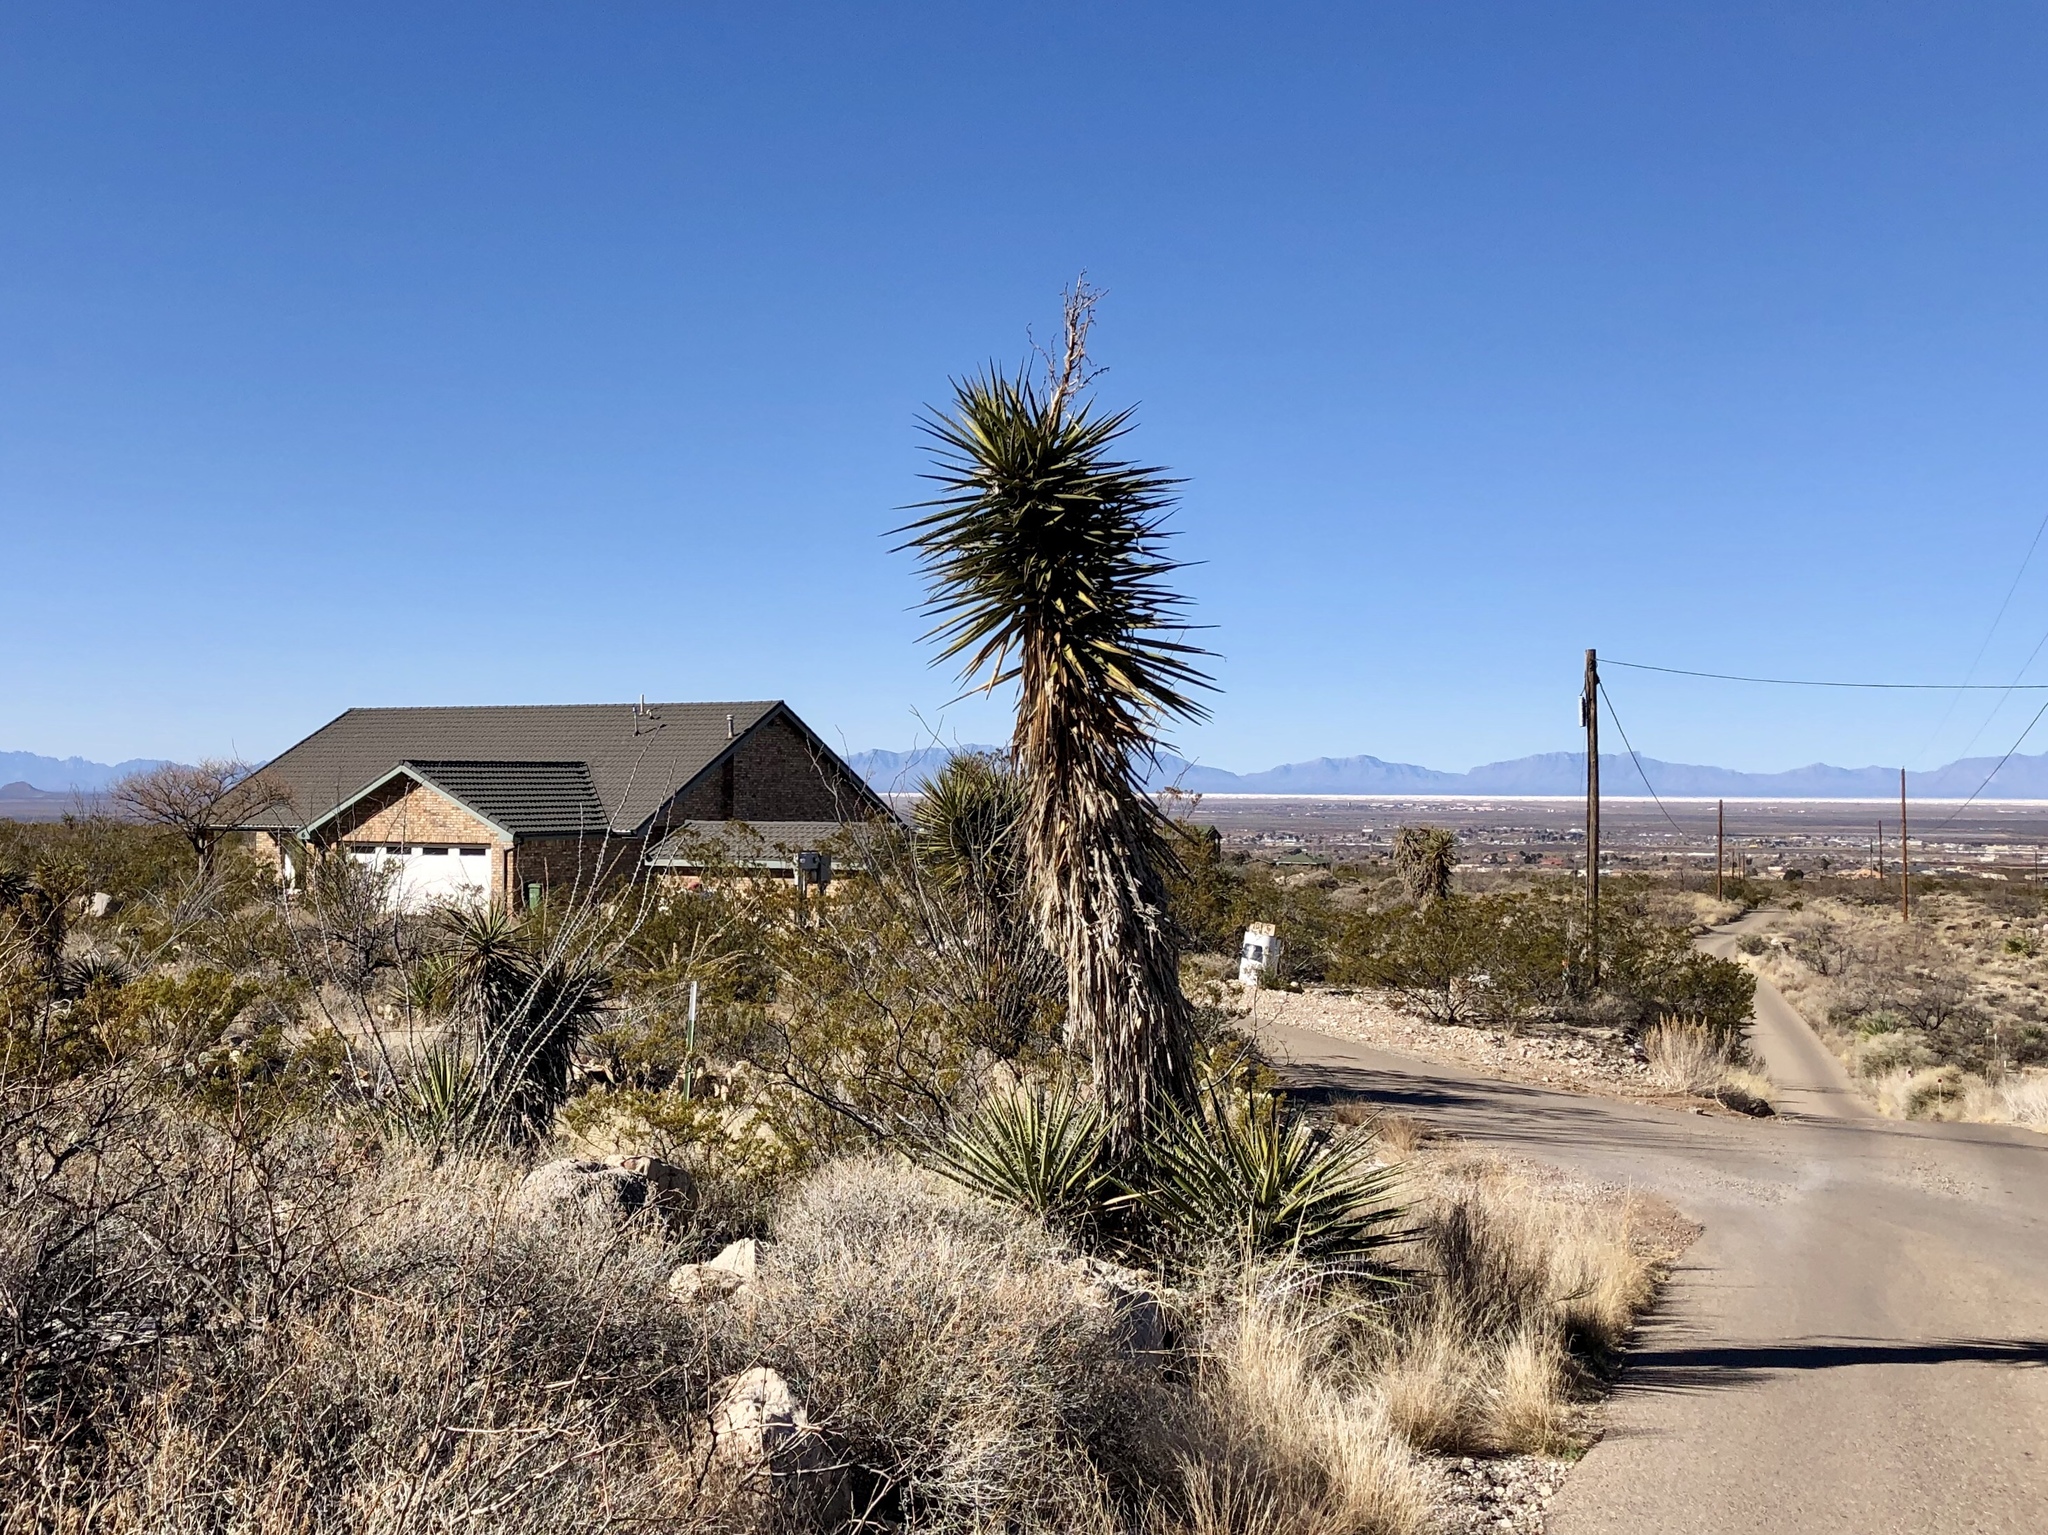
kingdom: Plantae
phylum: Tracheophyta
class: Liliopsida
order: Asparagales
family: Asparagaceae
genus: Yucca
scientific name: Yucca treculiana
